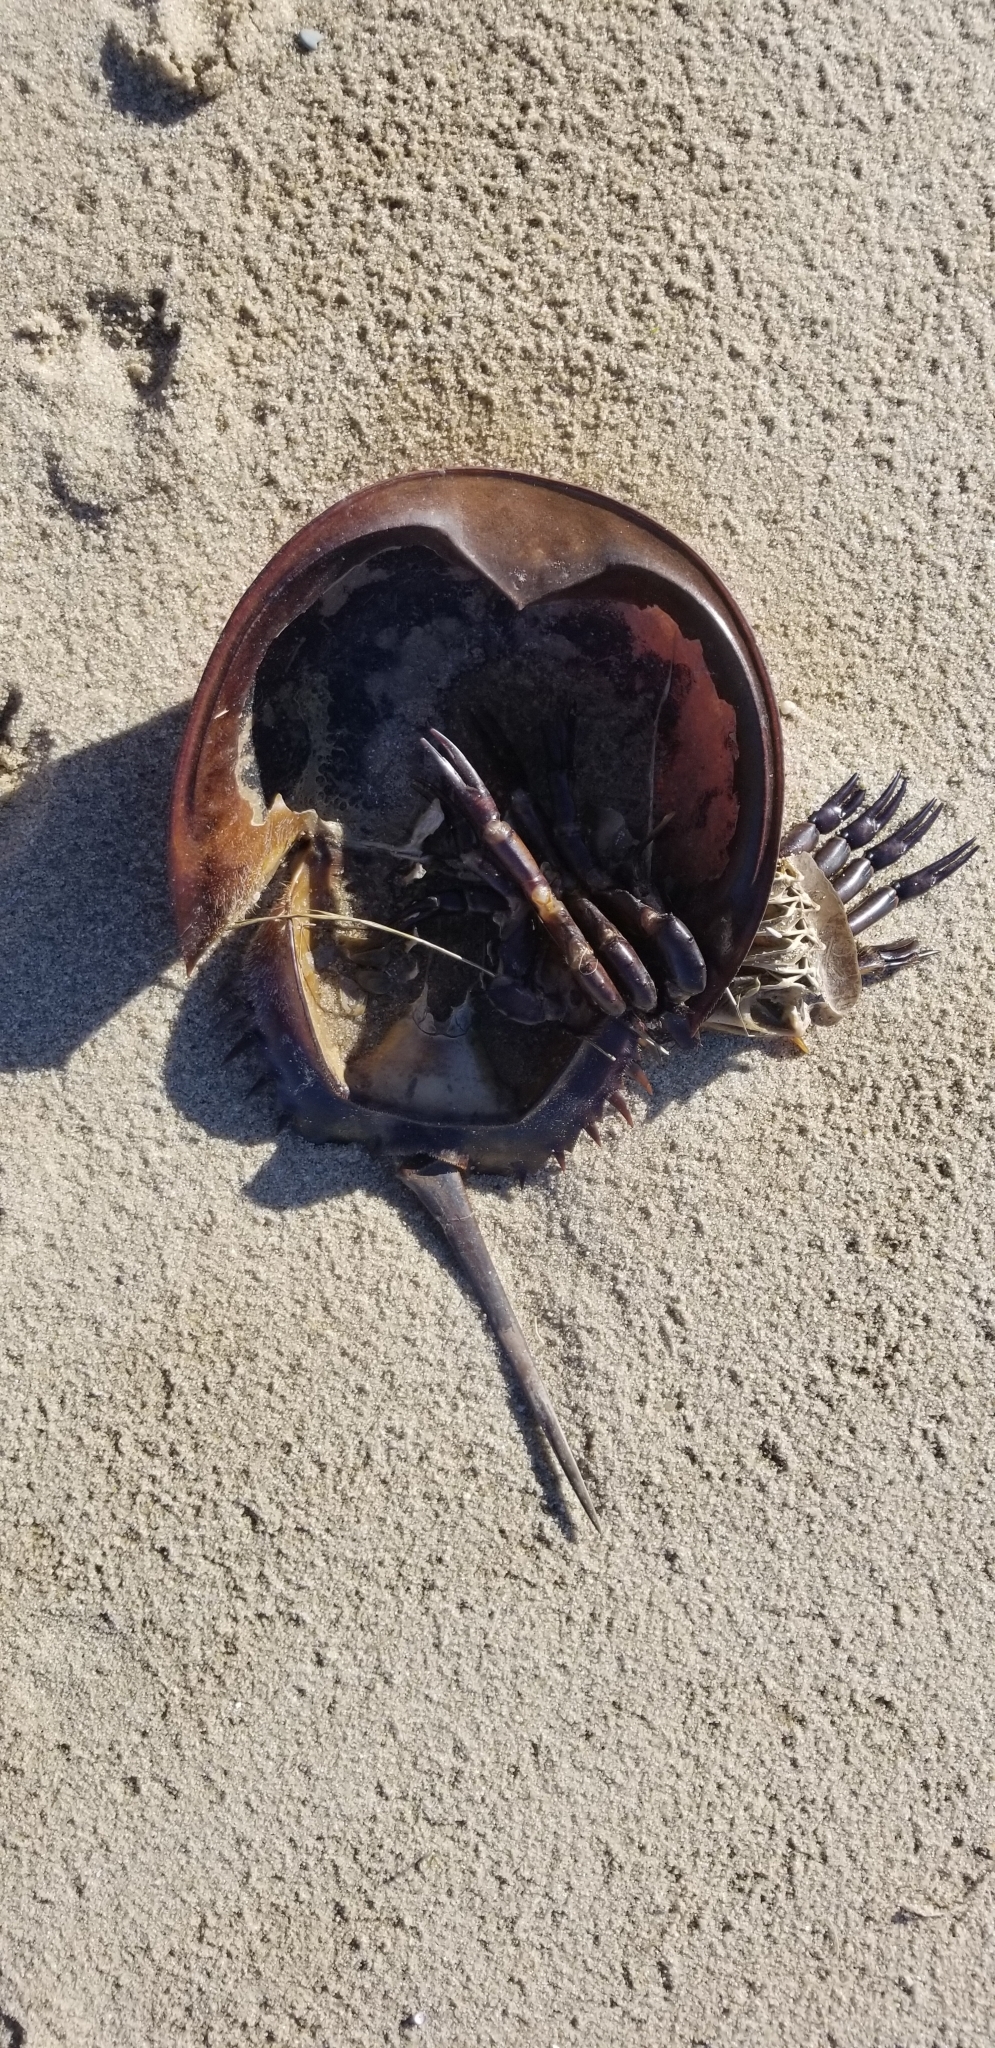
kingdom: Animalia
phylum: Arthropoda
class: Merostomata
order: Xiphosurida
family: Limulidae
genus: Limulus
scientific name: Limulus polyphemus
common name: Horseshoe crab
